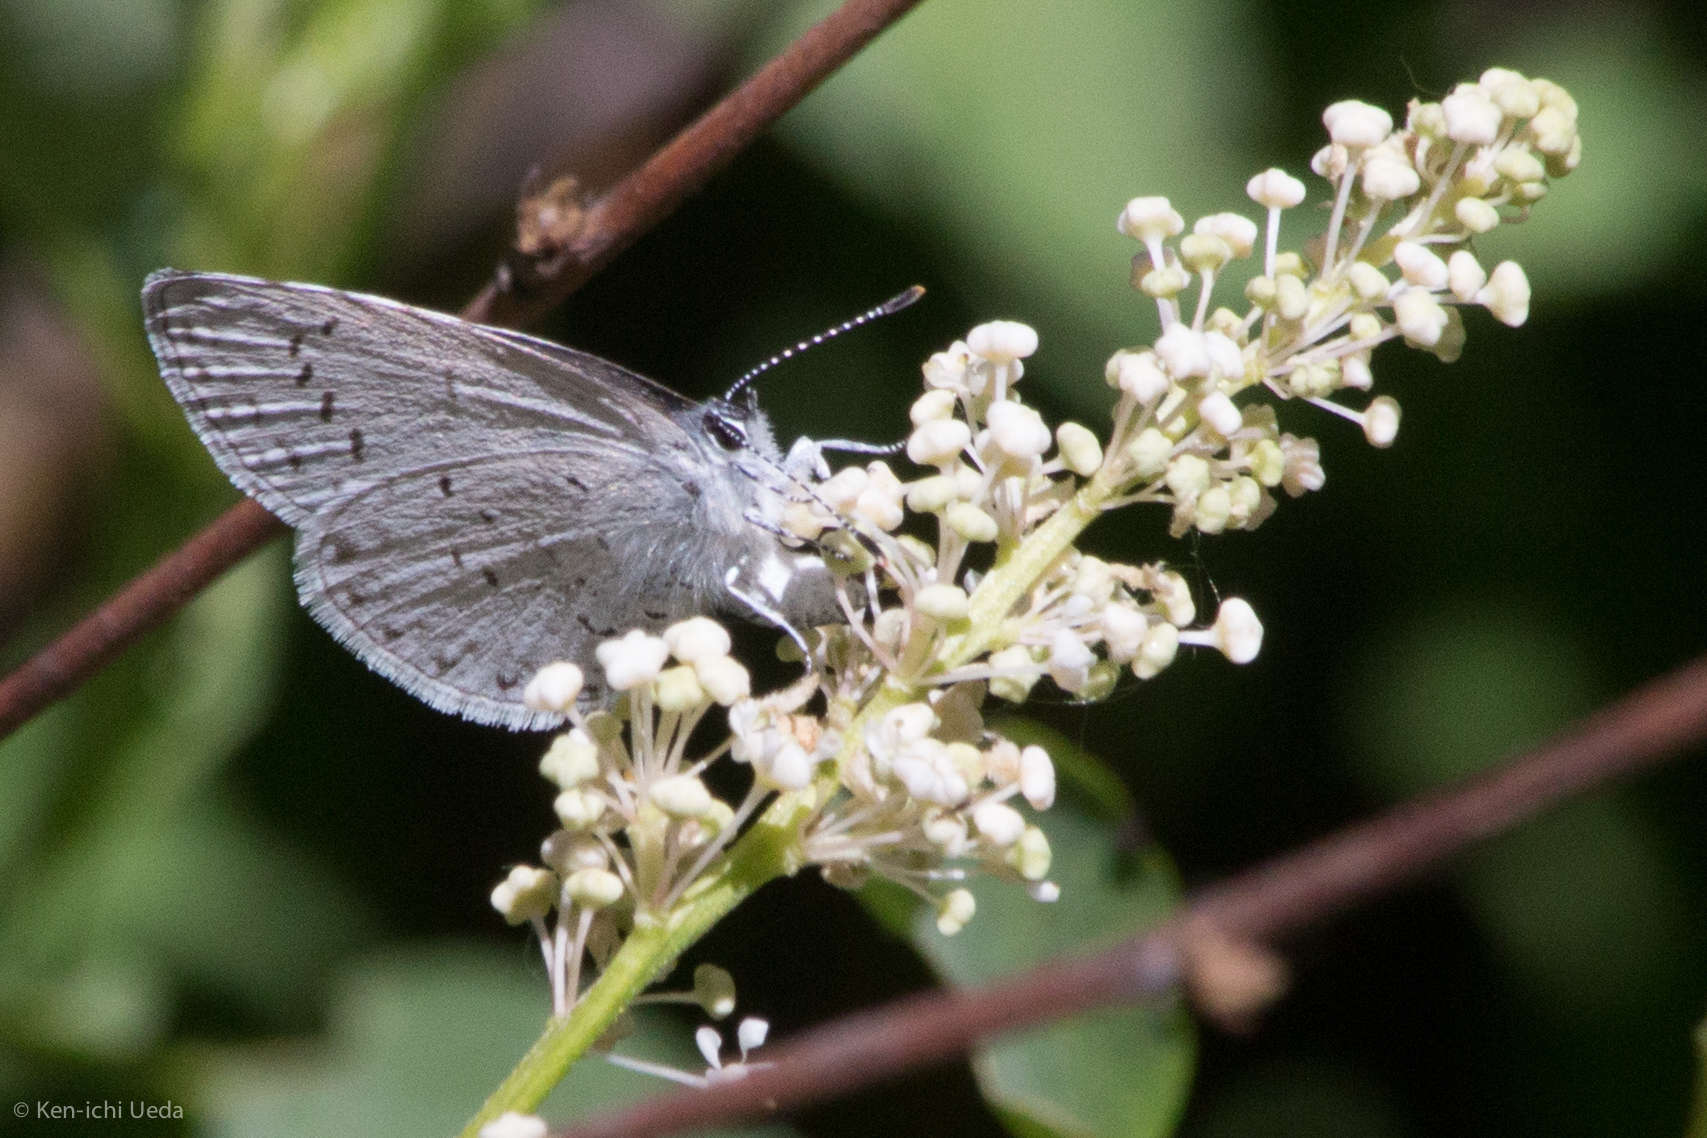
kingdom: Animalia
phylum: Arthropoda
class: Insecta
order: Lepidoptera
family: Lycaenidae
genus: Celastrina
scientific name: Celastrina ladon
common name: Spring azure
